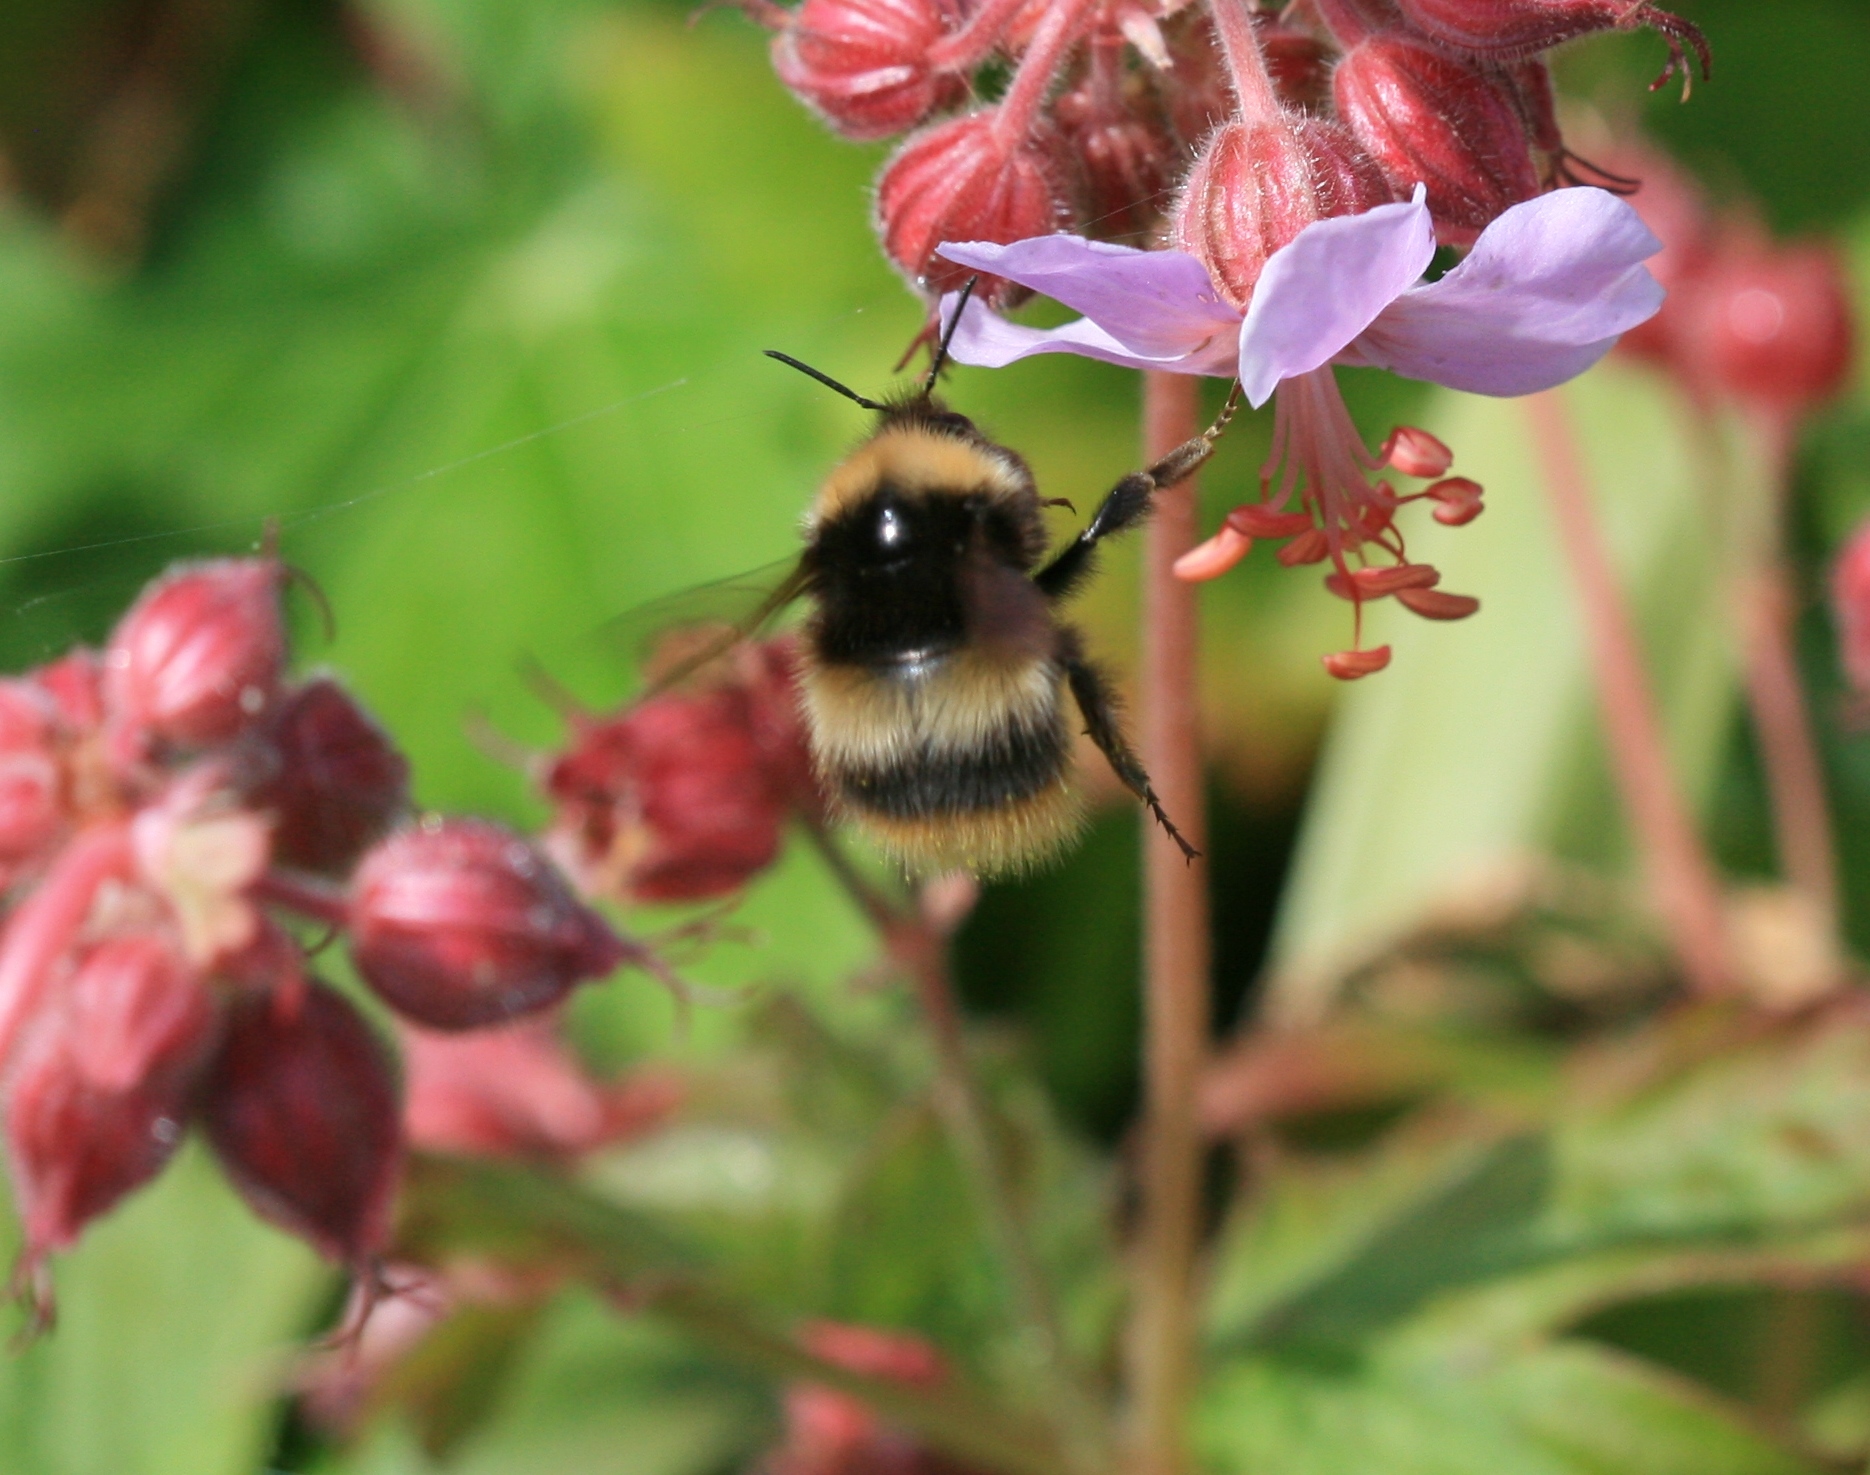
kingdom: Animalia
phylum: Arthropoda
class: Insecta
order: Hymenoptera
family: Apidae
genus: Bombus
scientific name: Bombus soroeensis
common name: Broken-belted humble-bee
